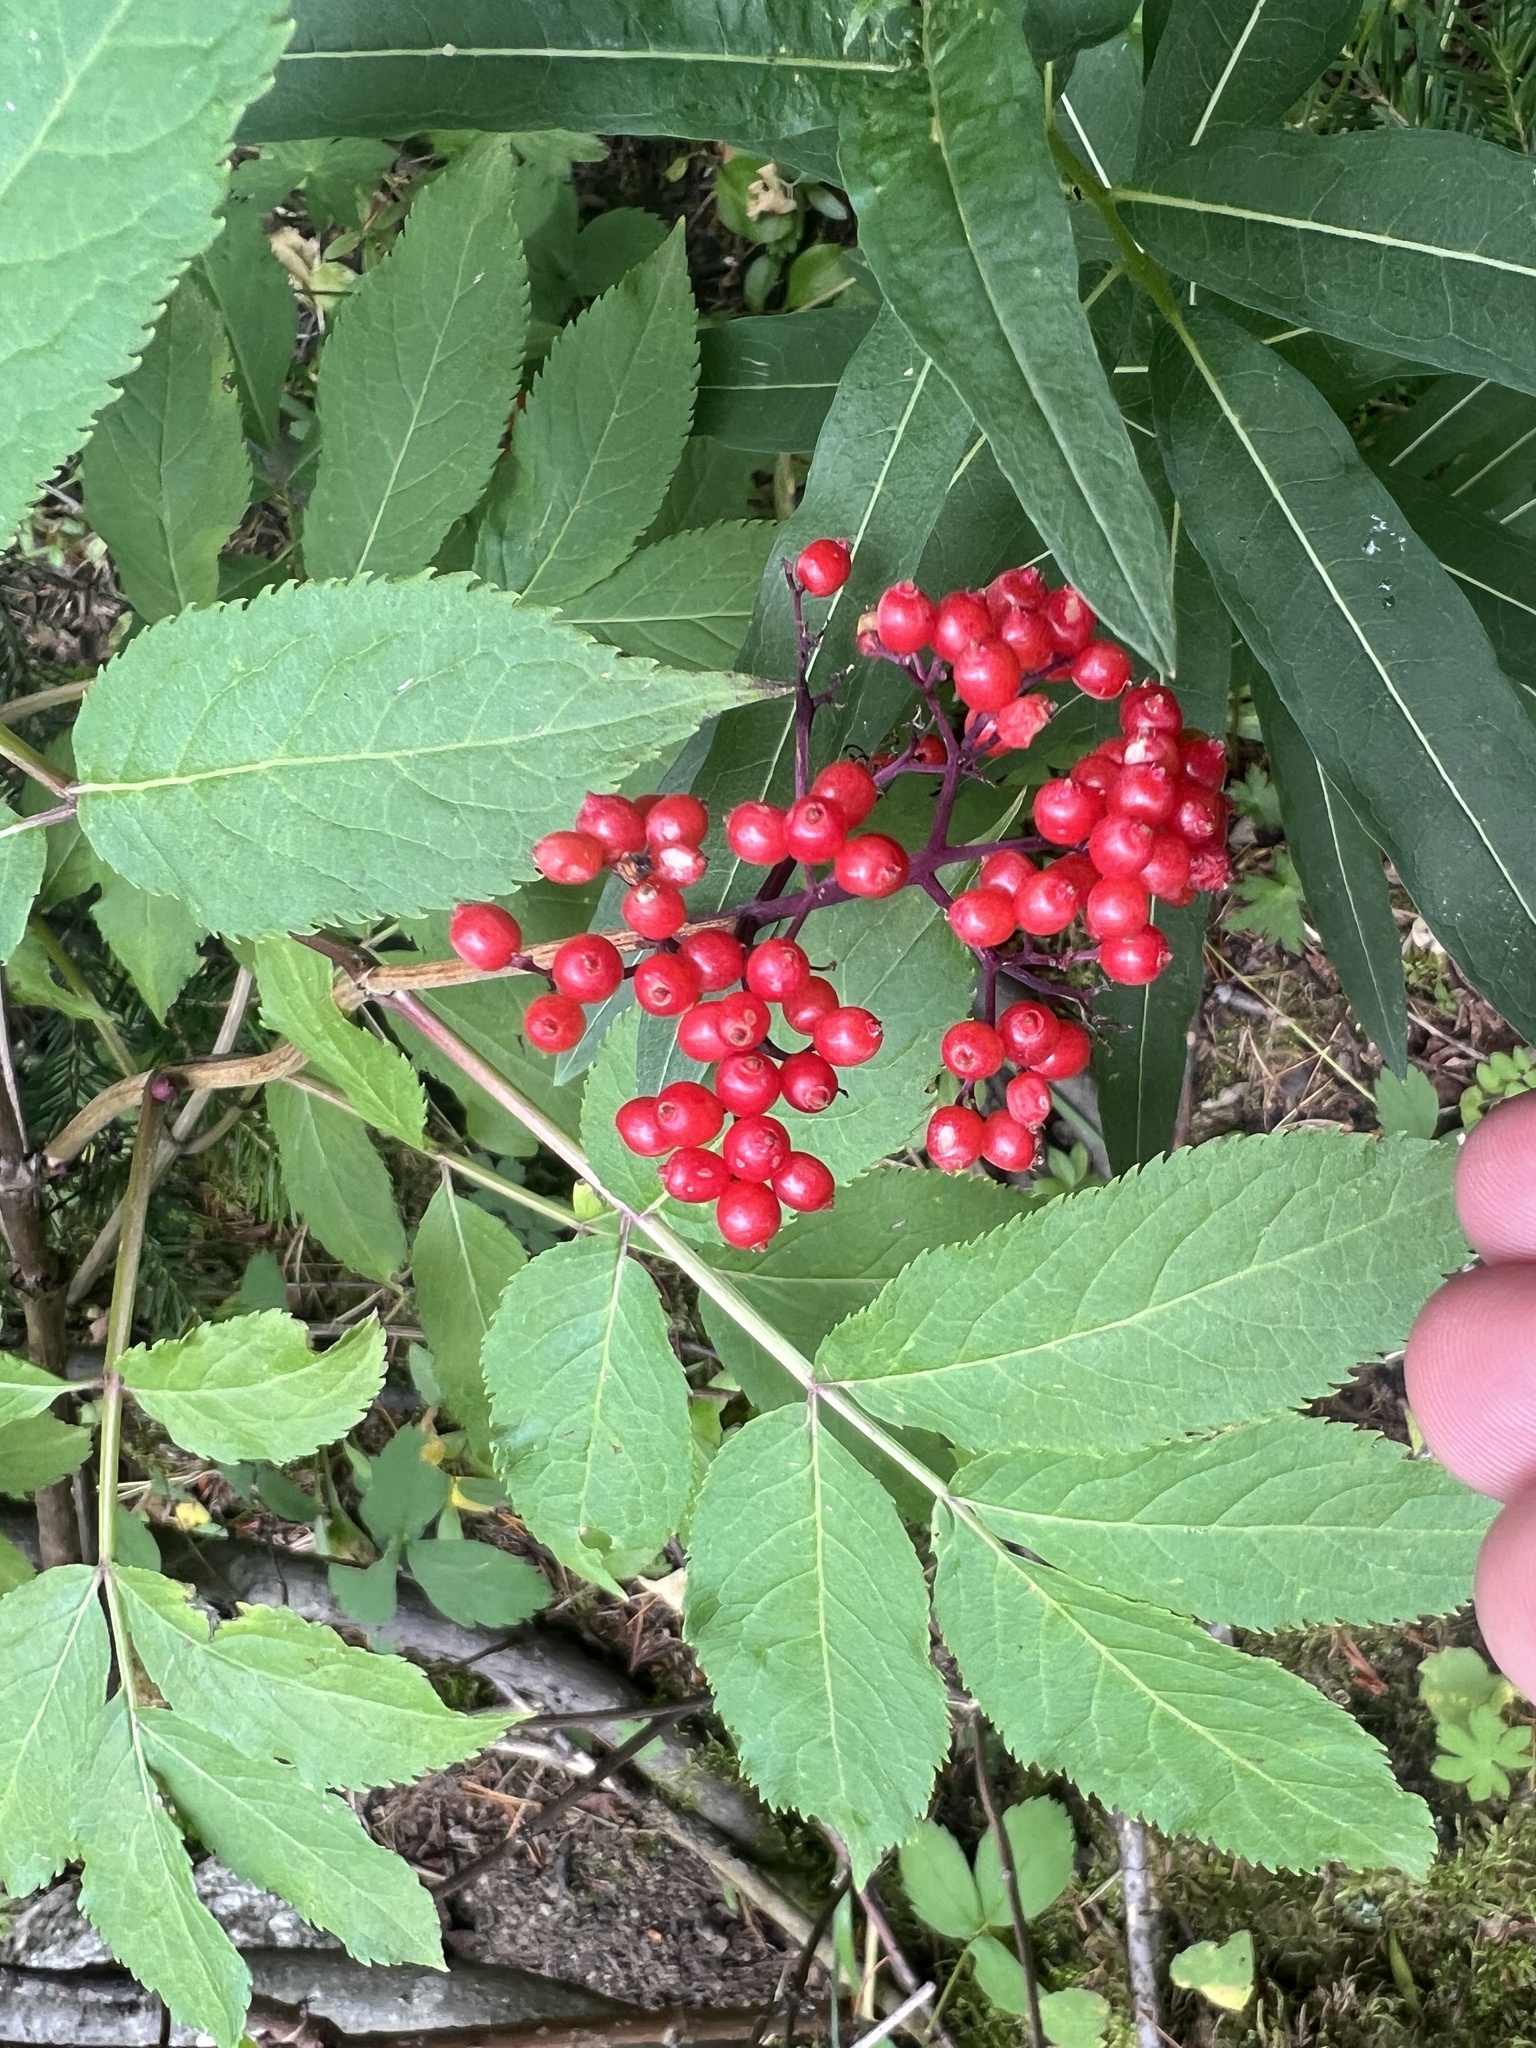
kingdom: Plantae
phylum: Tracheophyta
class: Magnoliopsida
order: Dipsacales
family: Viburnaceae
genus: Sambucus
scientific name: Sambucus racemosa
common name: Red-berried elder
